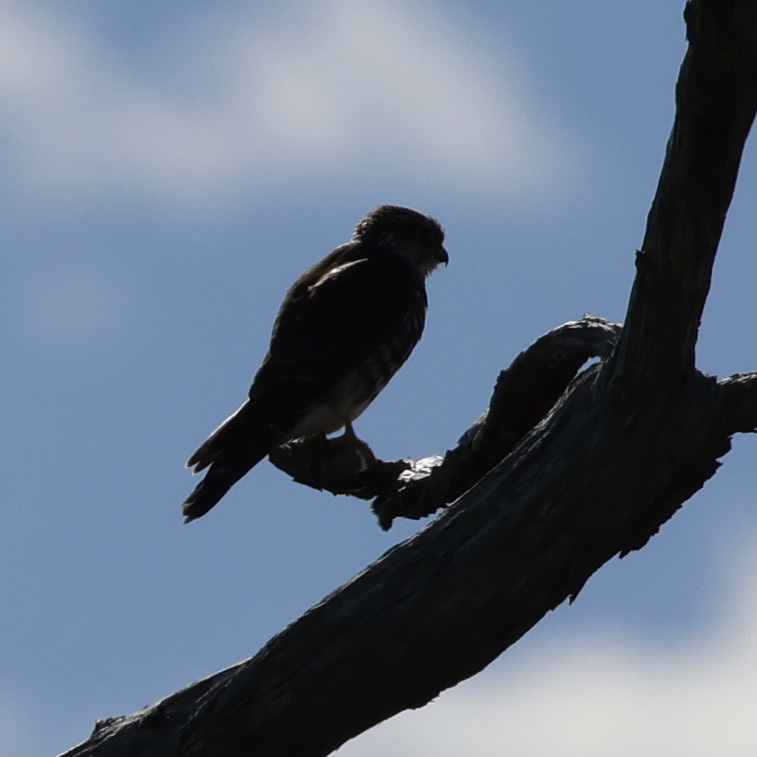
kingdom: Animalia
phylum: Chordata
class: Aves
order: Falconiformes
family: Falconidae
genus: Falco
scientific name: Falco columbarius
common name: Merlin
